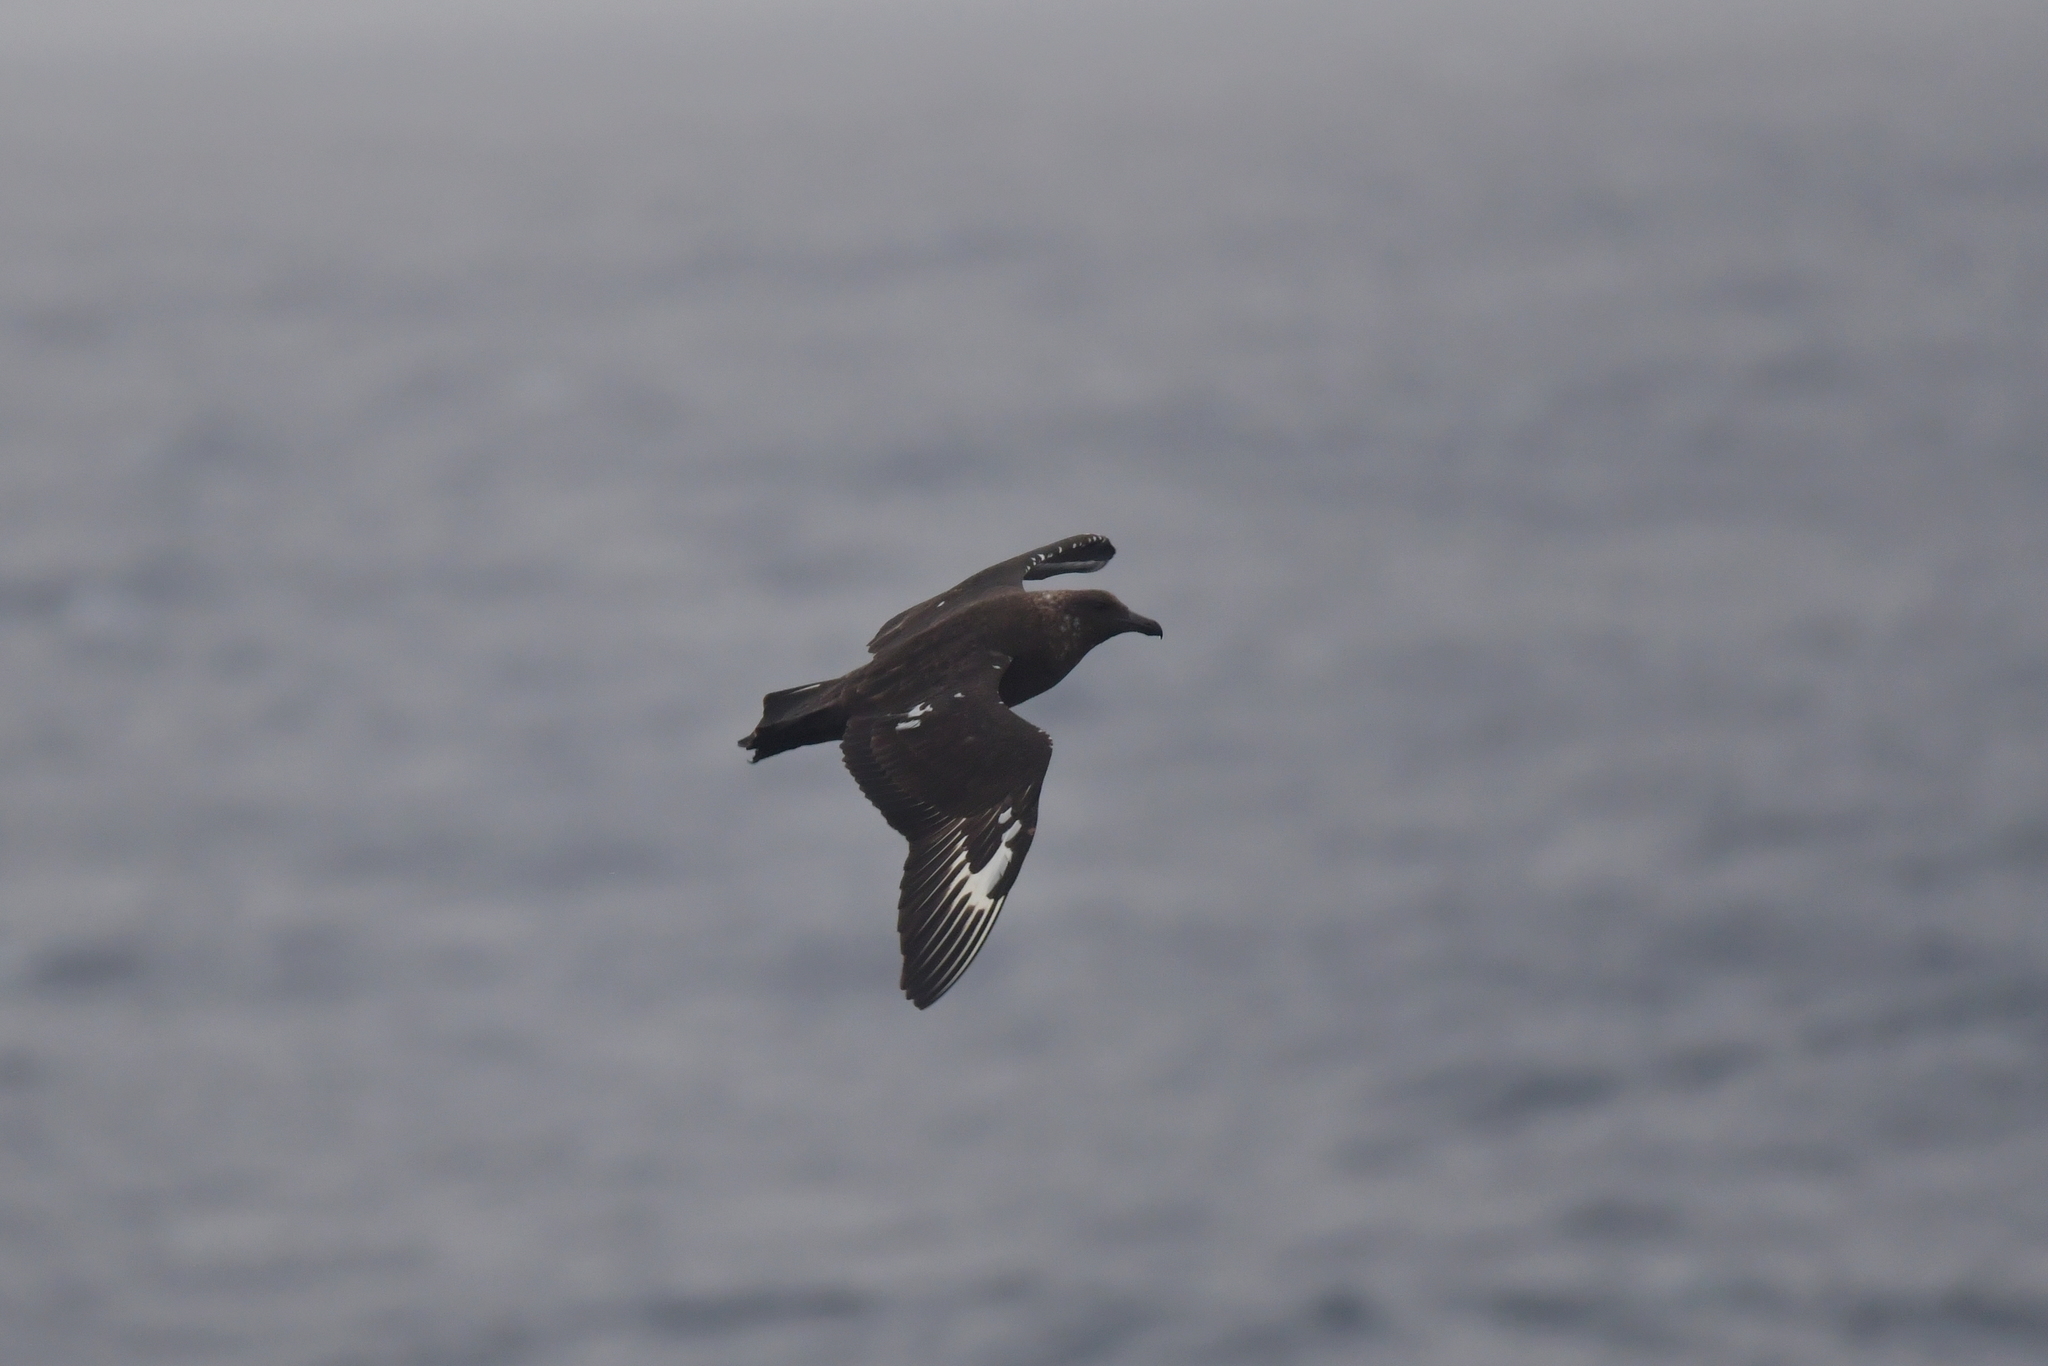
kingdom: Animalia
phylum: Chordata
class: Aves
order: Charadriiformes
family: Stercorariidae
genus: Stercorarius
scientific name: Stercorarius antarcticus
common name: Brown skua
